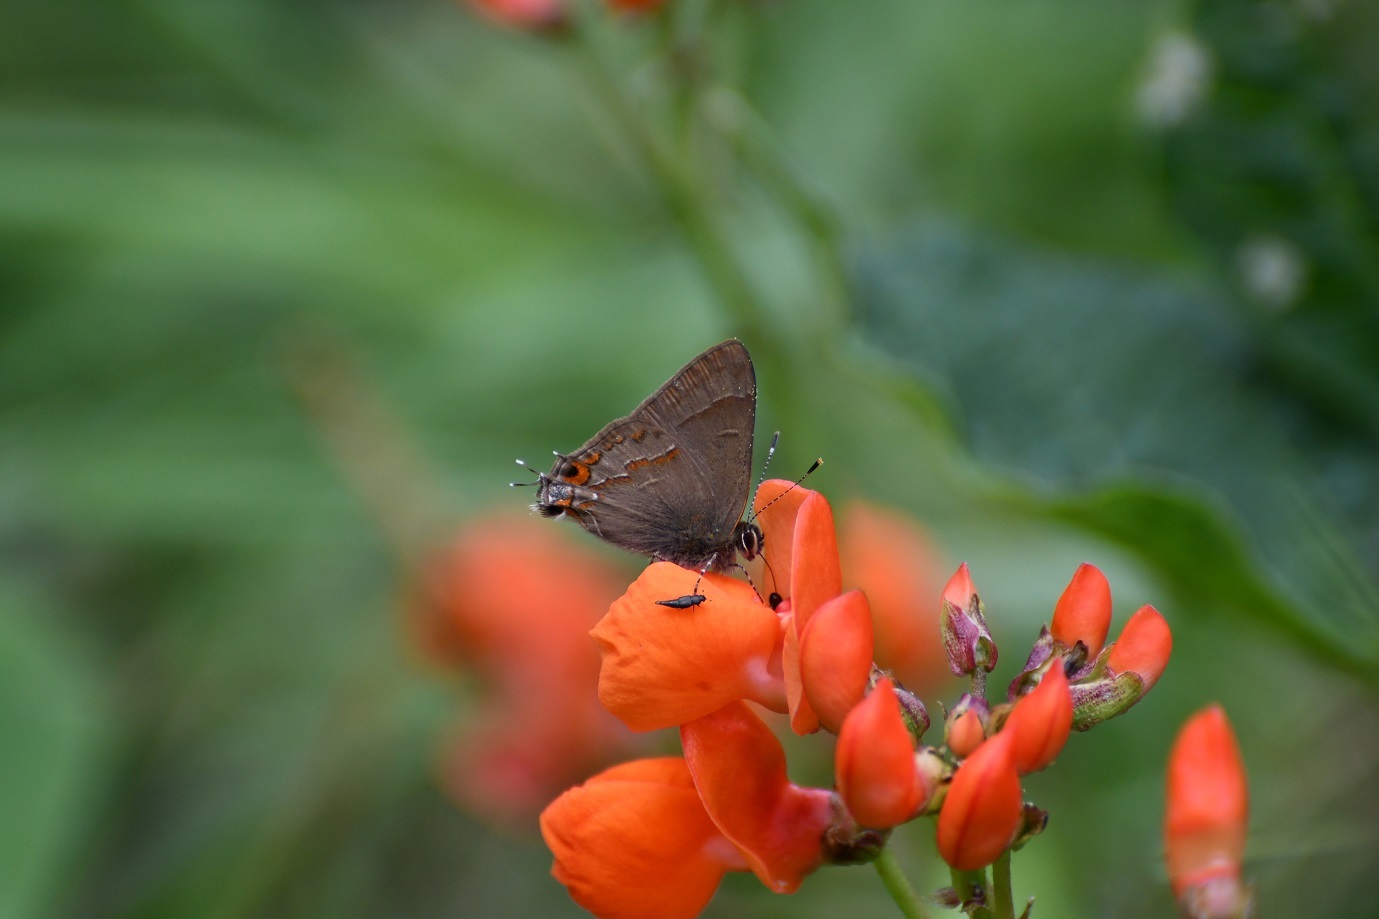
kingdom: Animalia
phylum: Arthropoda
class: Insecta
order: Lepidoptera
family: Lycaenidae
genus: Electrostrymon
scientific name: Electrostrymon
